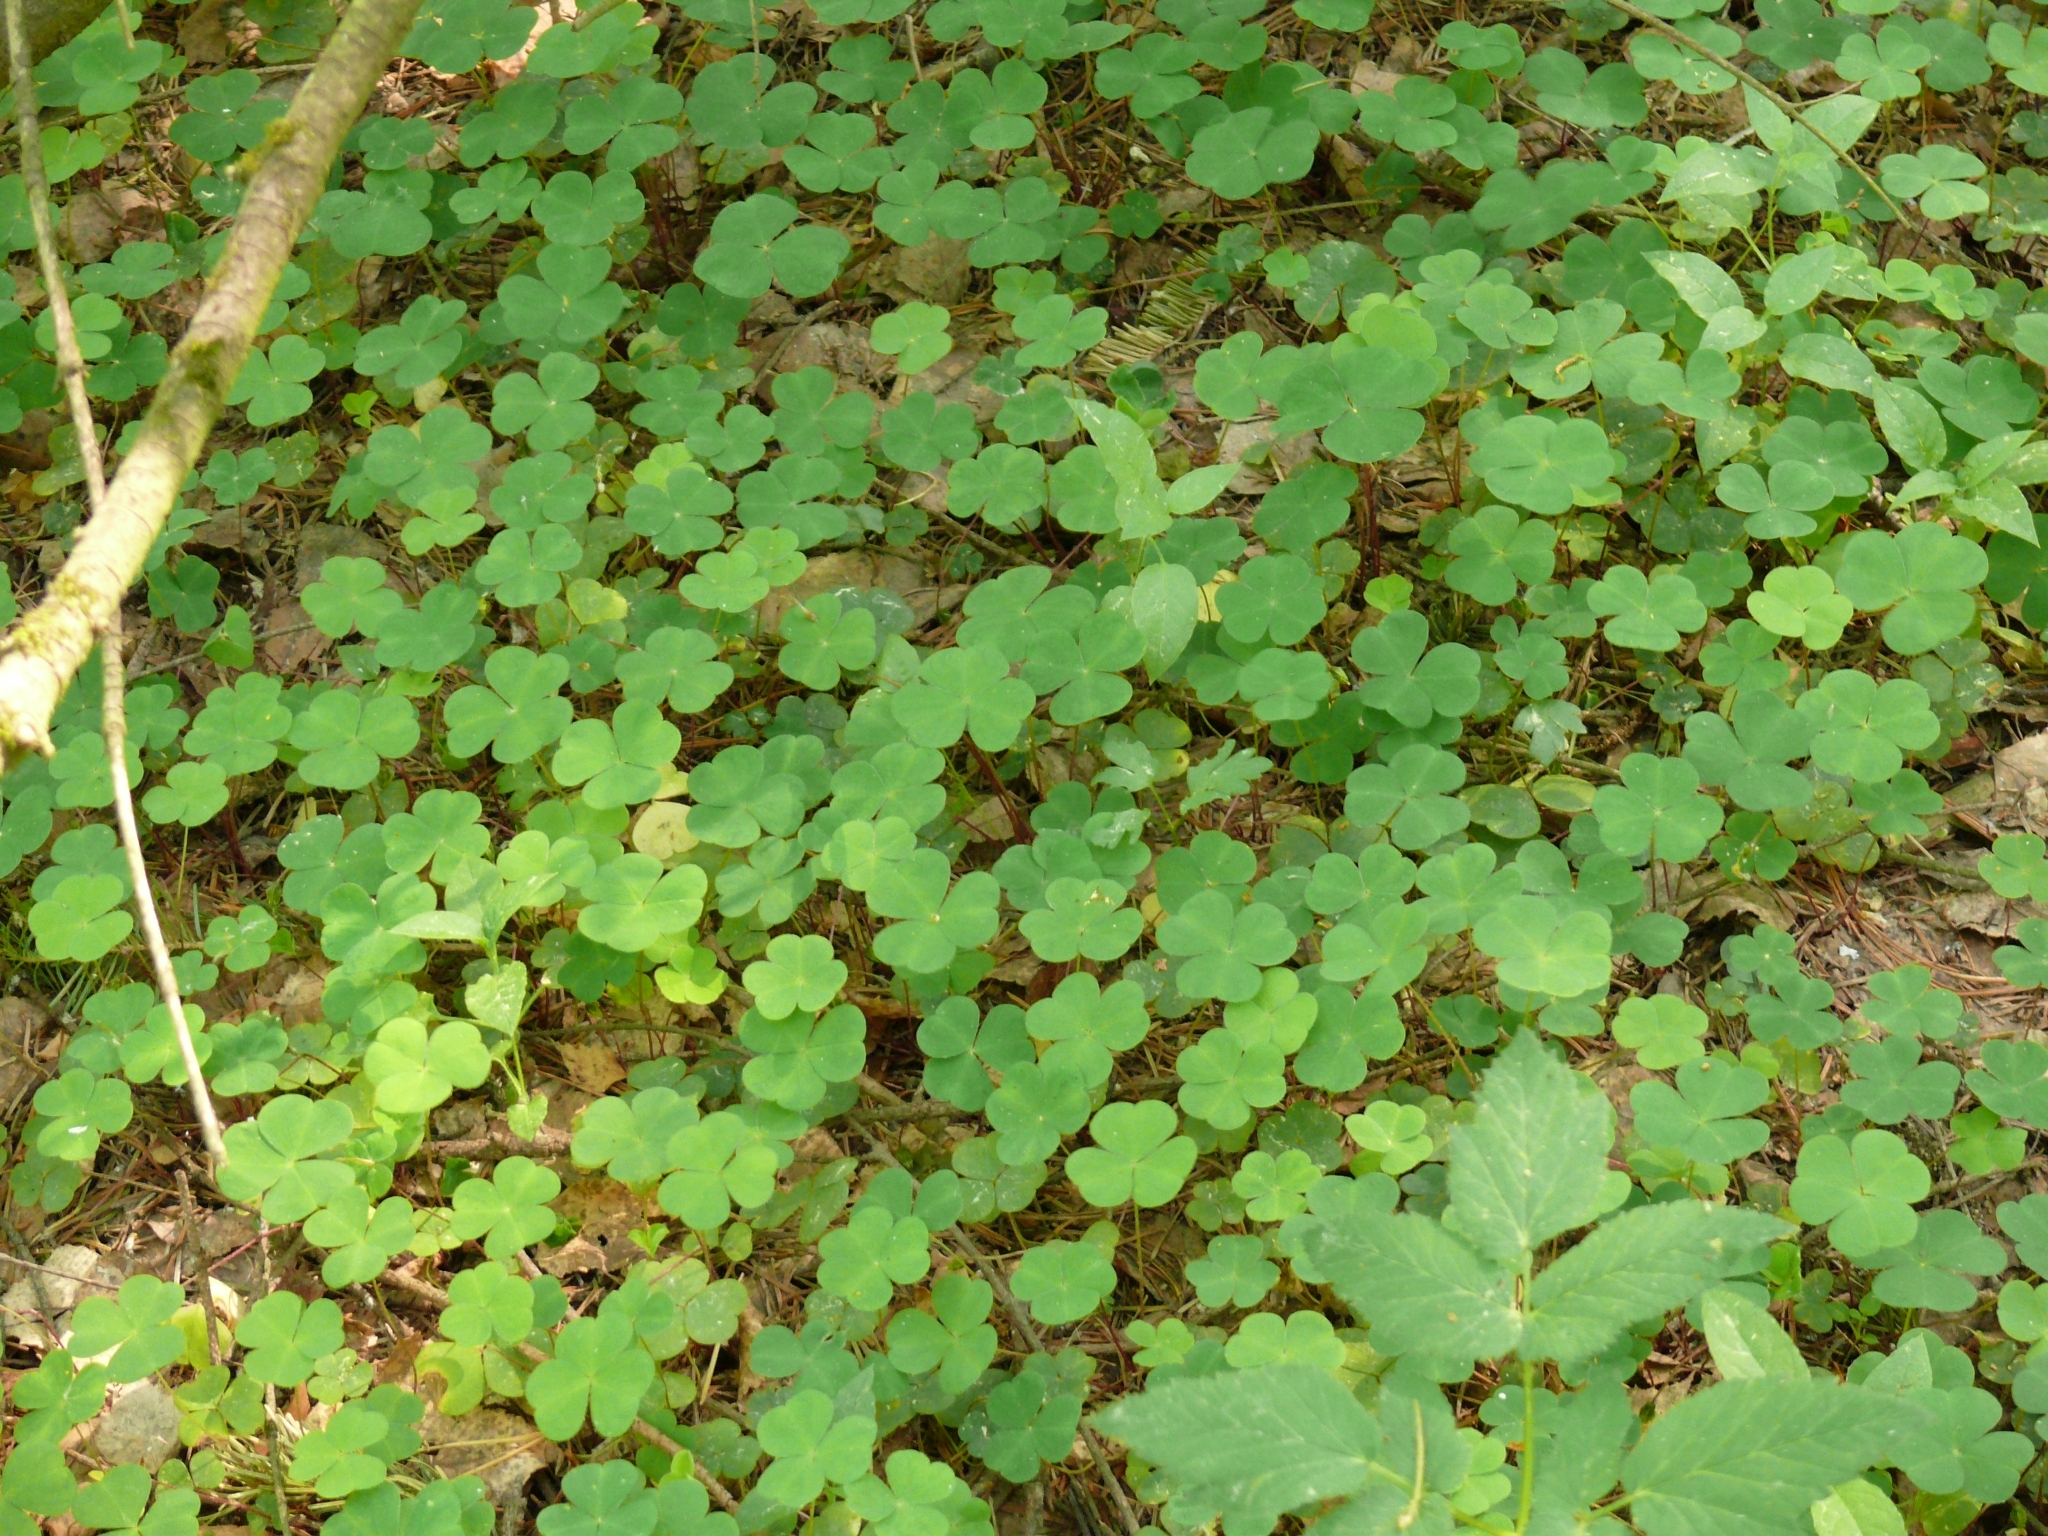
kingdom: Plantae
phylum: Tracheophyta
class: Magnoliopsida
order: Oxalidales
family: Oxalidaceae
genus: Oxalis
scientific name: Oxalis acetosella
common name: Wood-sorrel
